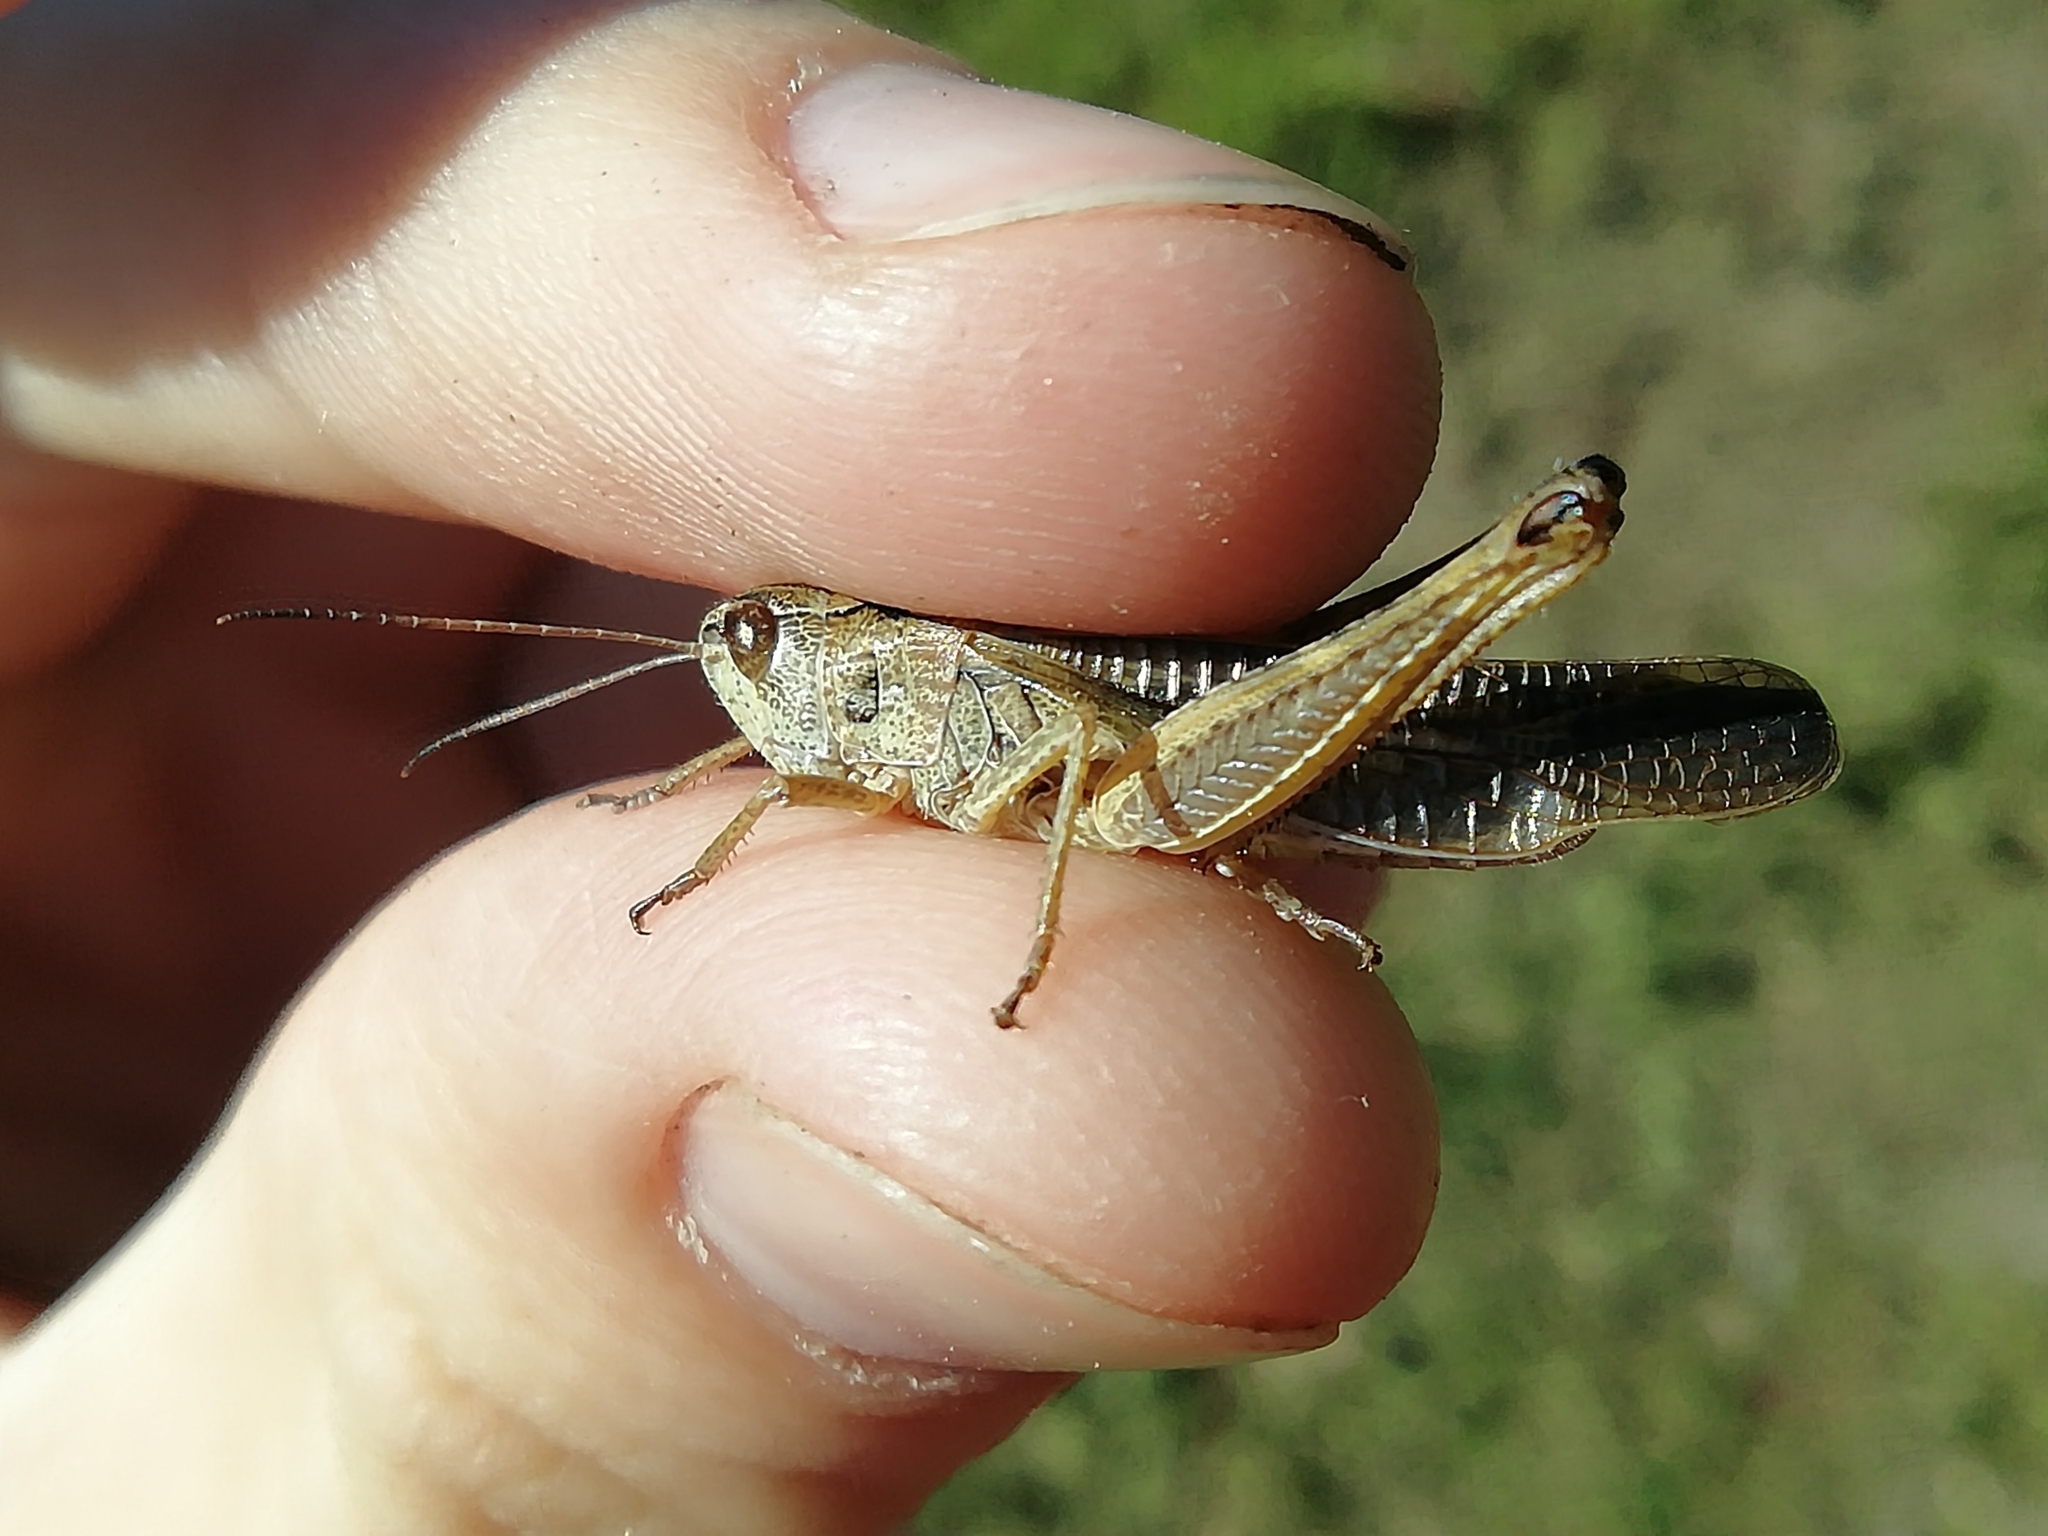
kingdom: Animalia
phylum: Arthropoda
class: Insecta
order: Orthoptera
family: Acrididae
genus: Stauroderus
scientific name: Stauroderus scalaris
